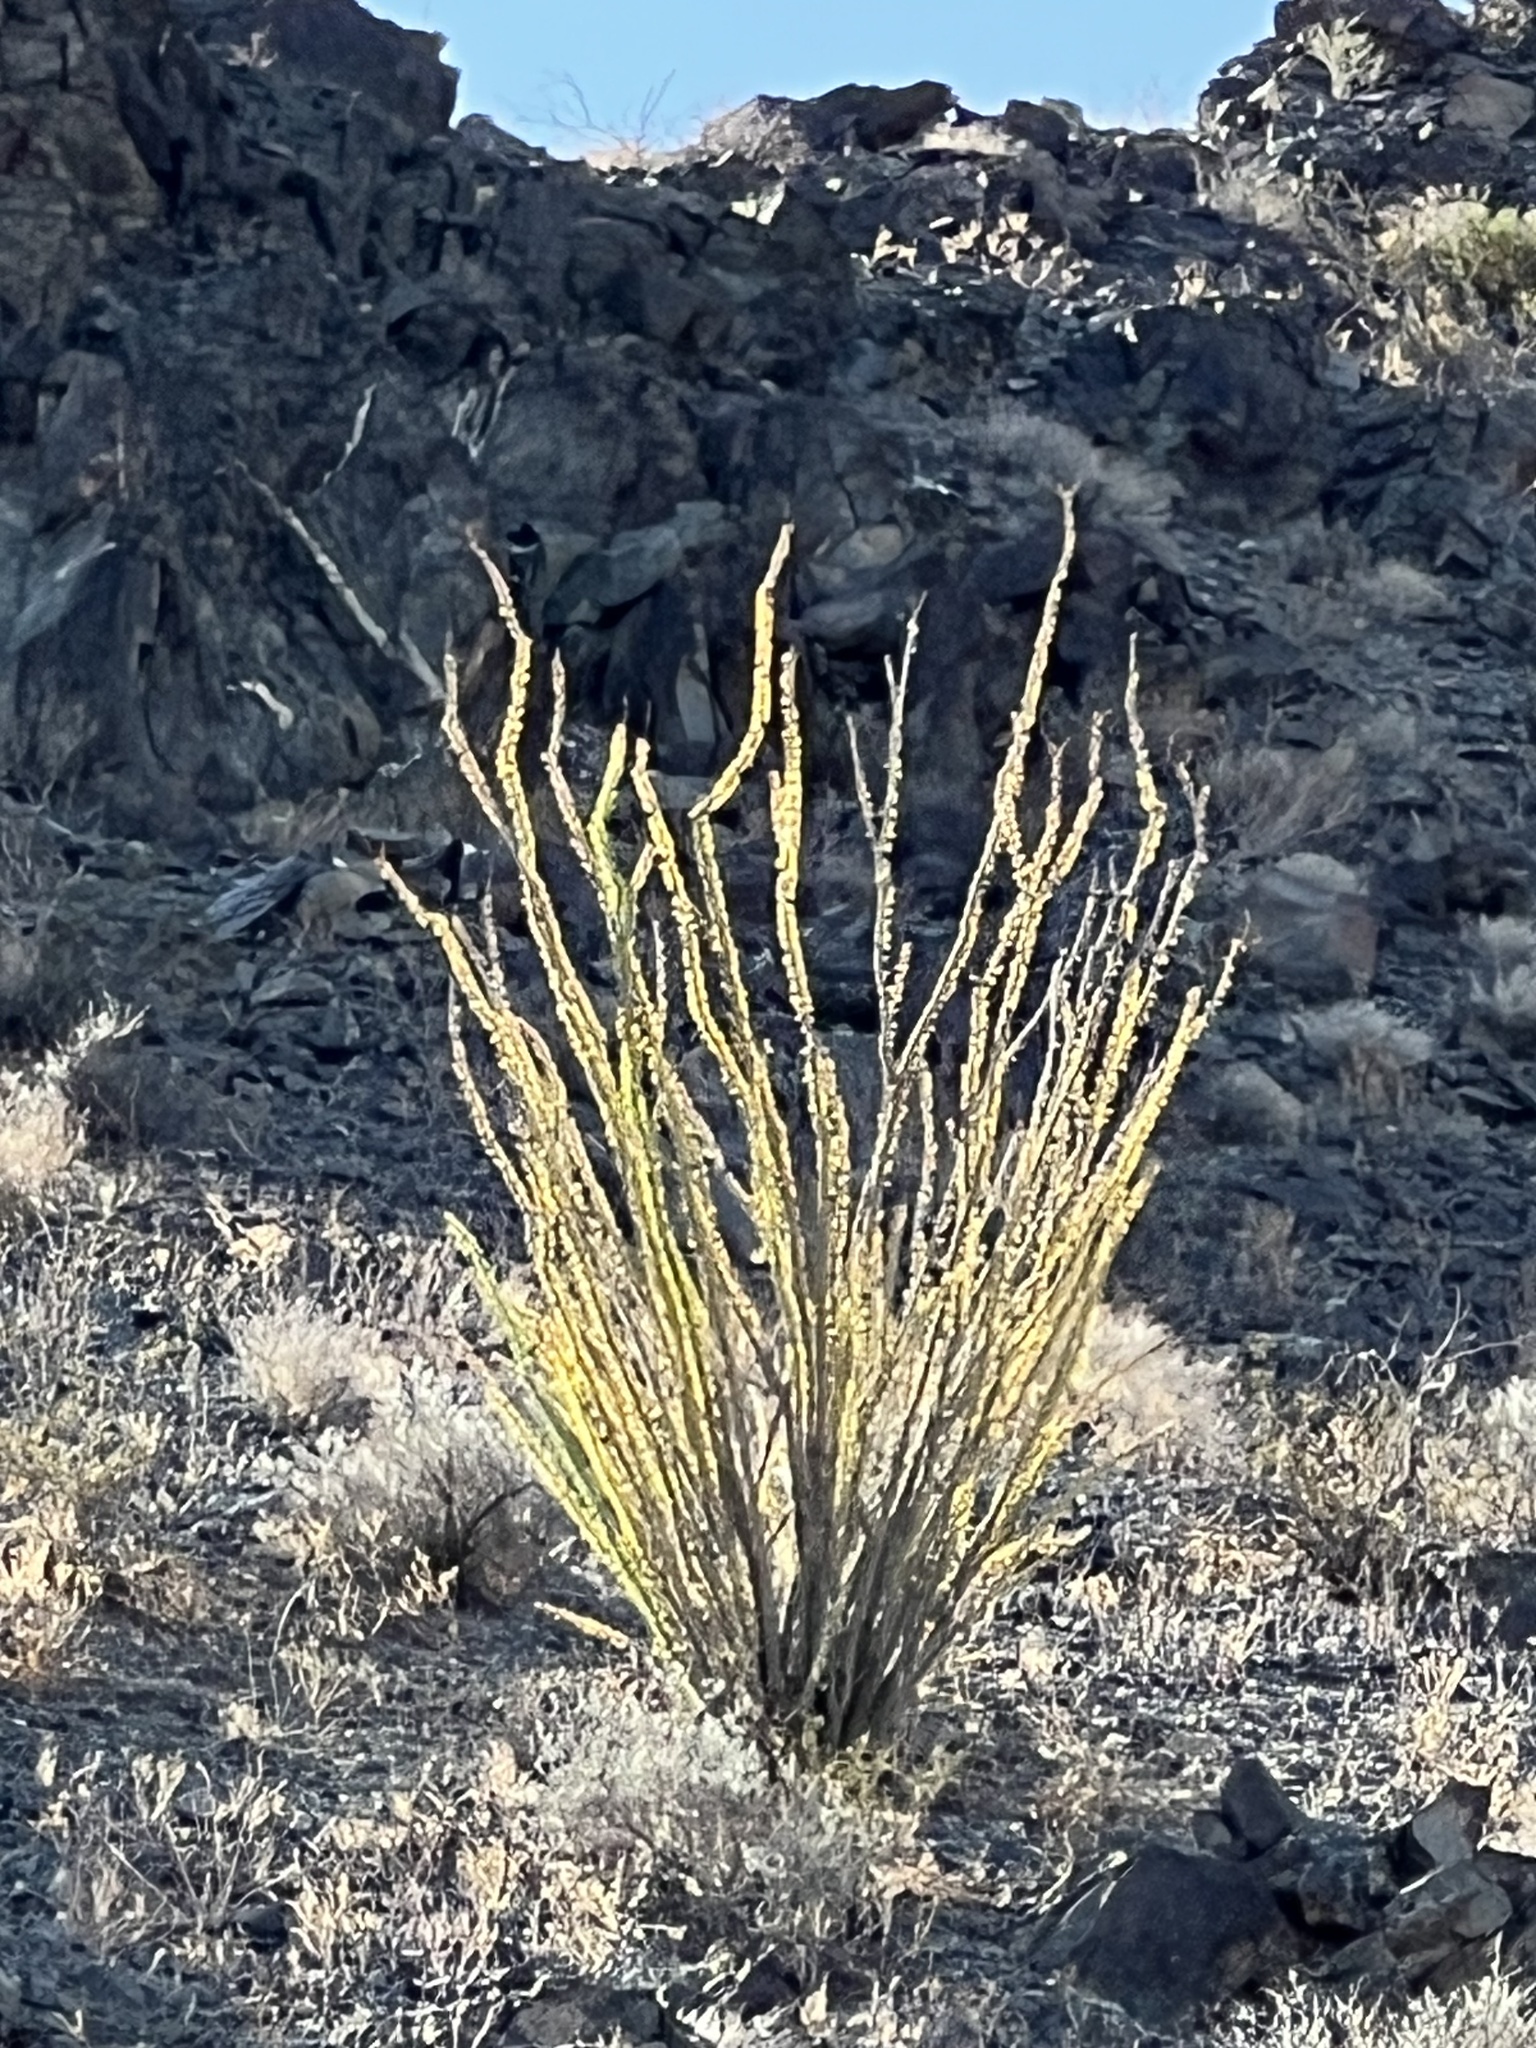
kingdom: Plantae
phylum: Tracheophyta
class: Magnoliopsida
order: Ericales
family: Fouquieriaceae
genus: Fouquieria
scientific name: Fouquieria splendens
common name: Vine-cactus
